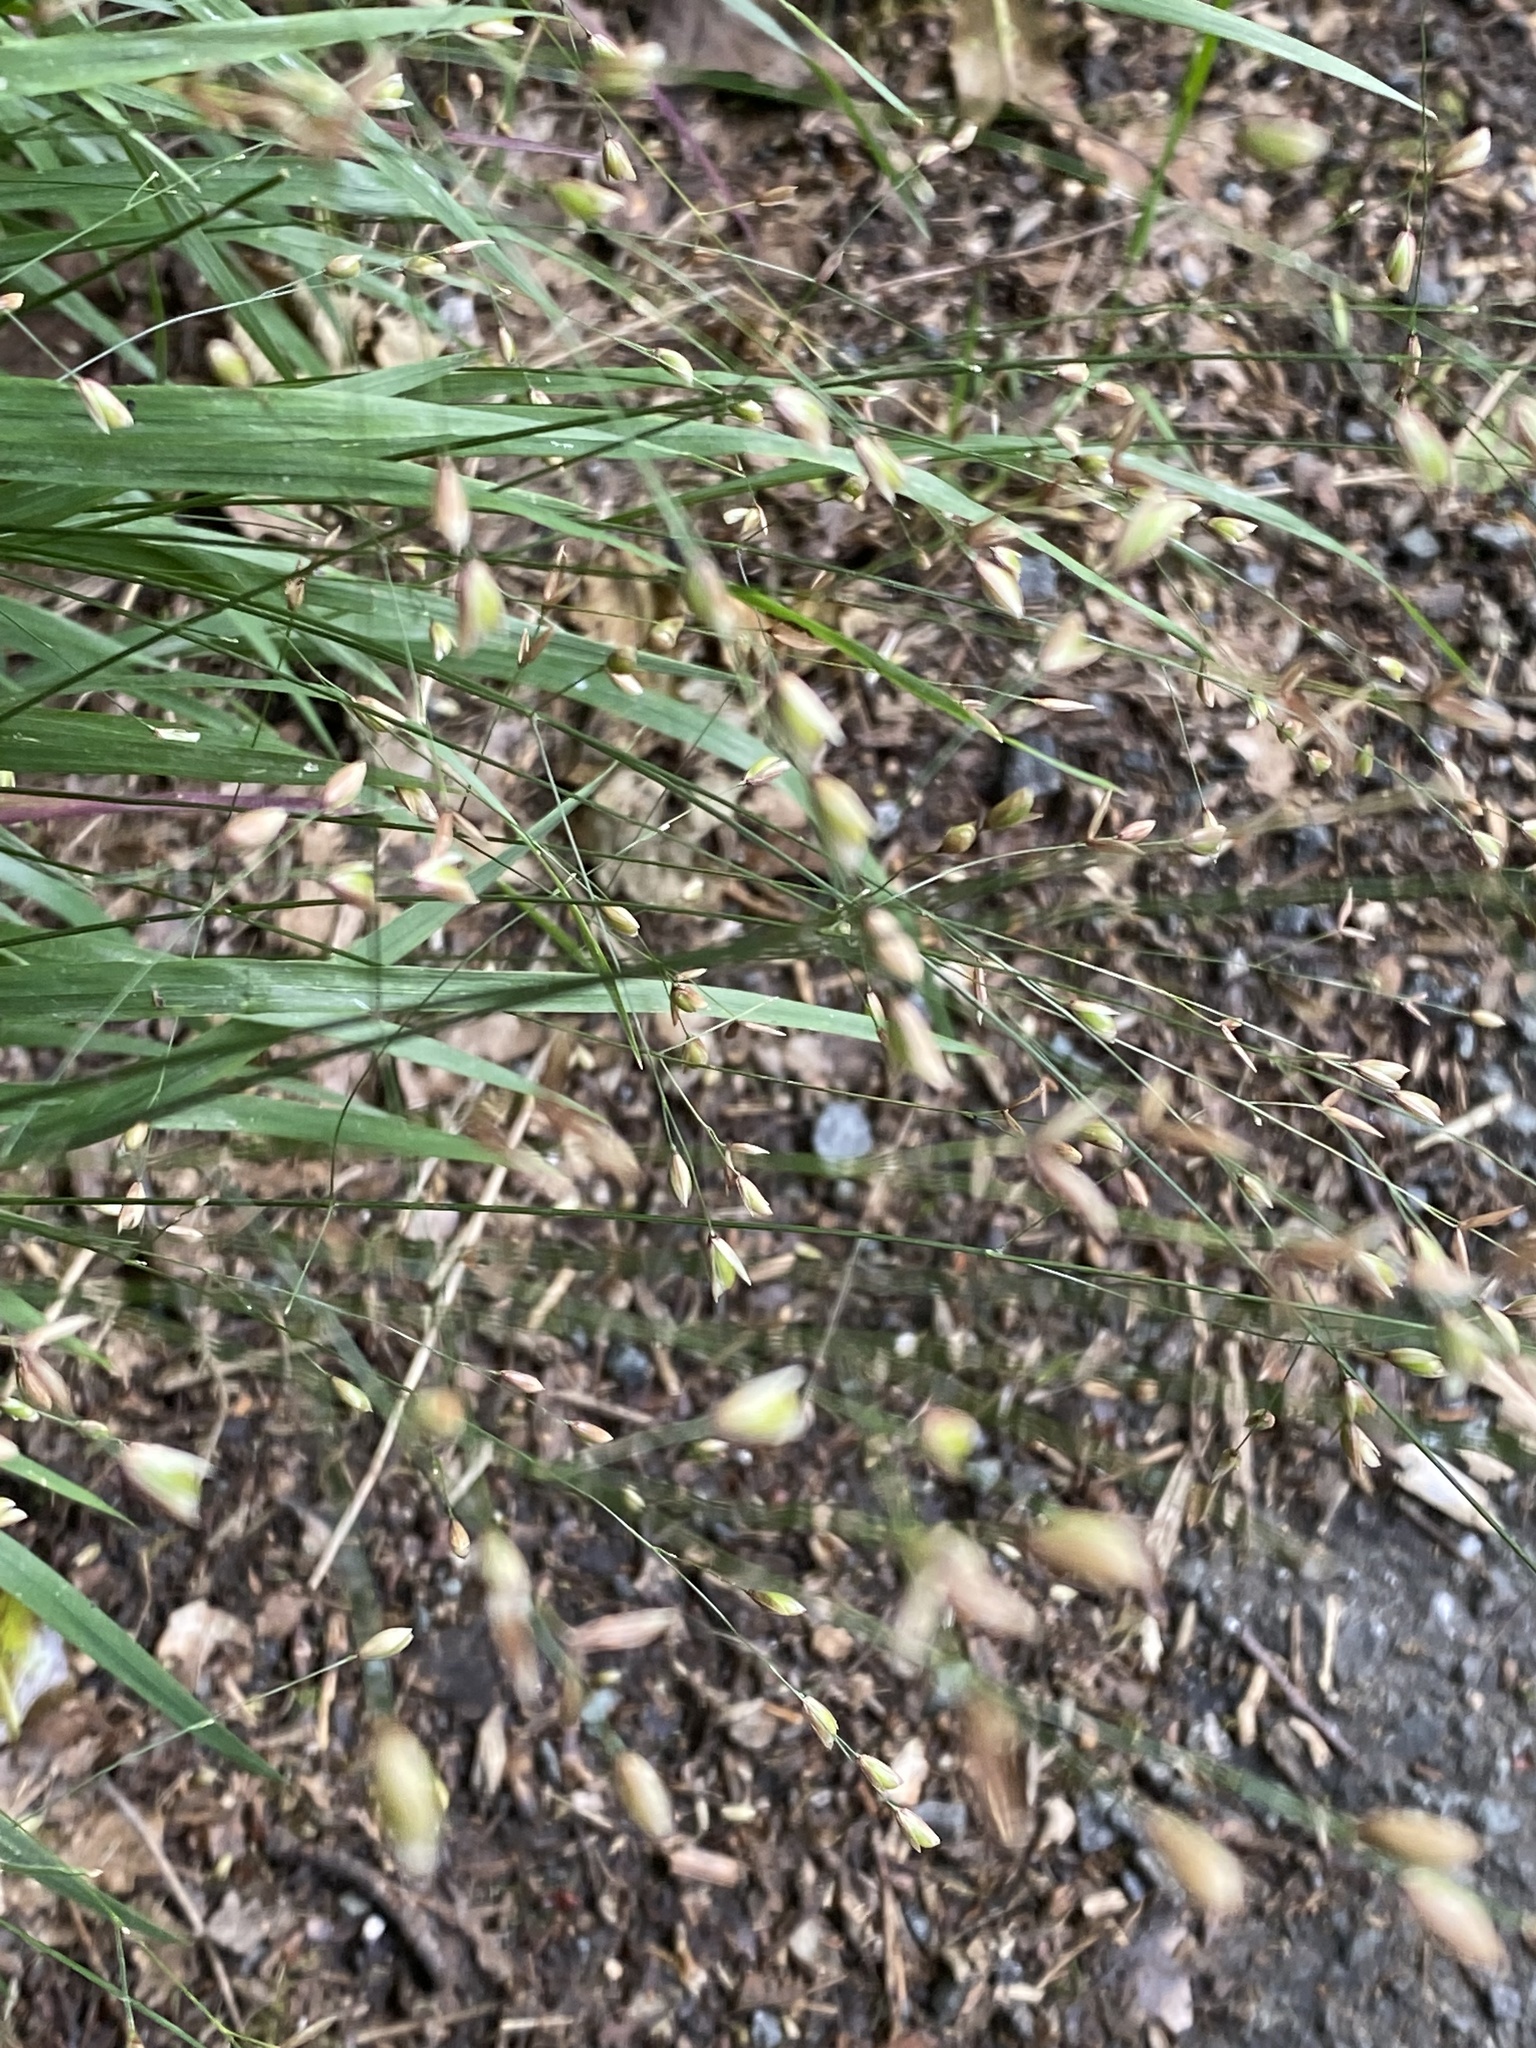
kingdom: Plantae
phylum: Tracheophyta
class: Liliopsida
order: Poales
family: Poaceae
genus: Melica
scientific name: Melica uniflora
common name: Wood melick
